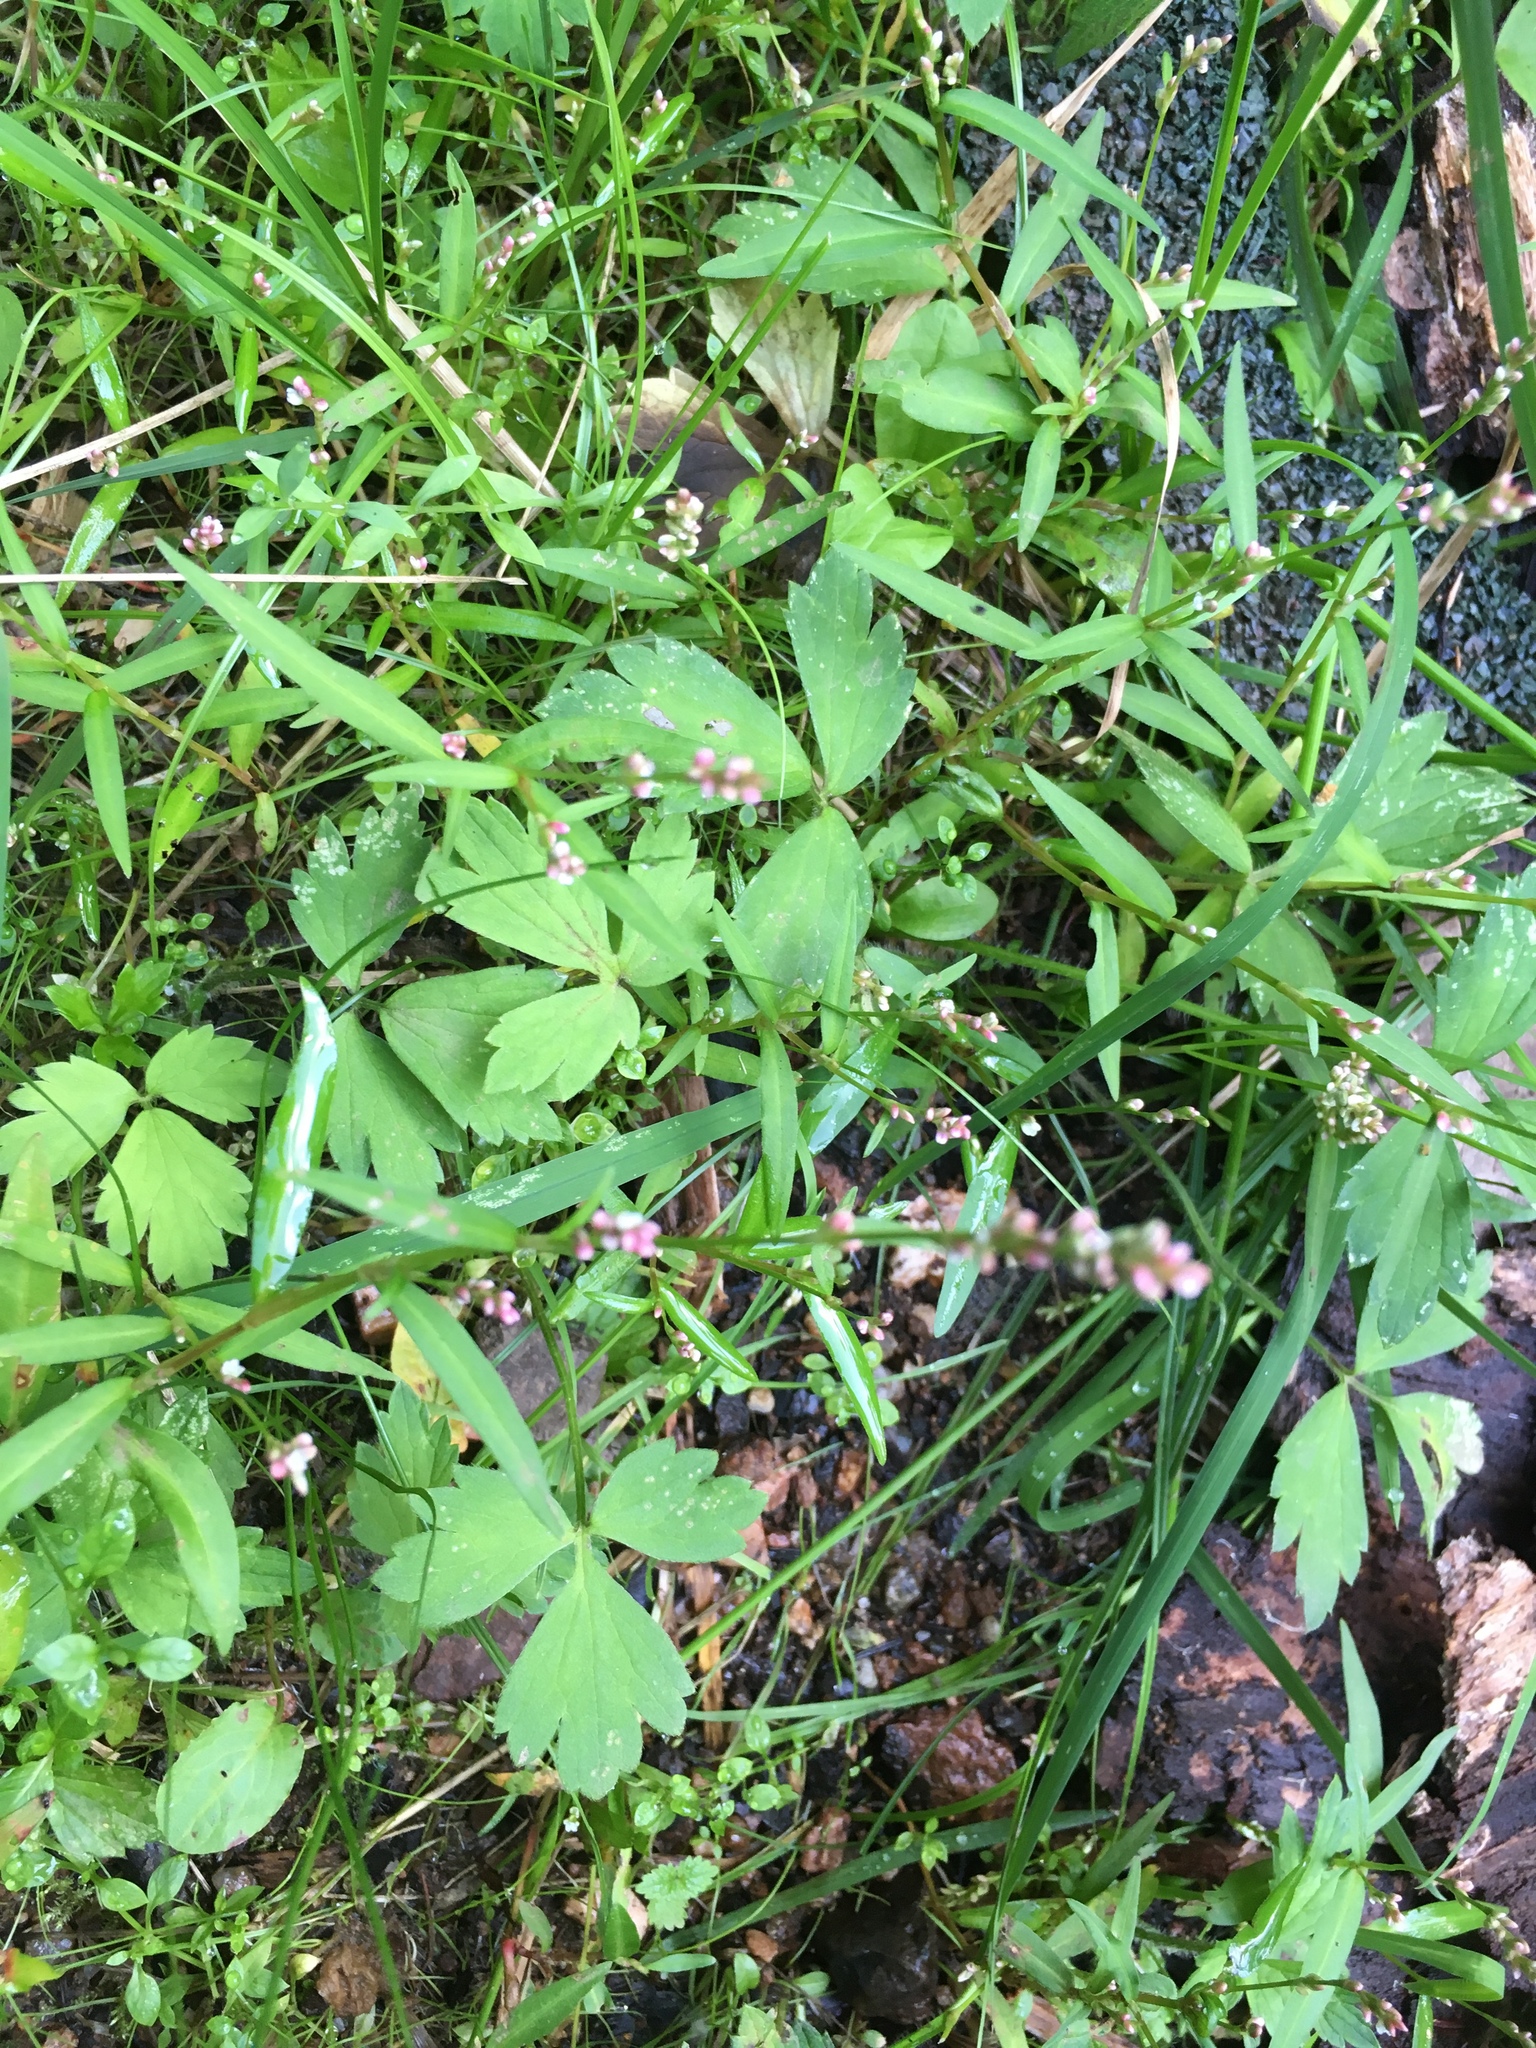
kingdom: Plantae
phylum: Tracheophyta
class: Magnoliopsida
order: Caryophyllales
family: Polygonaceae
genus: Persicaria
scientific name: Persicaria hydropiper
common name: Water-pepper
